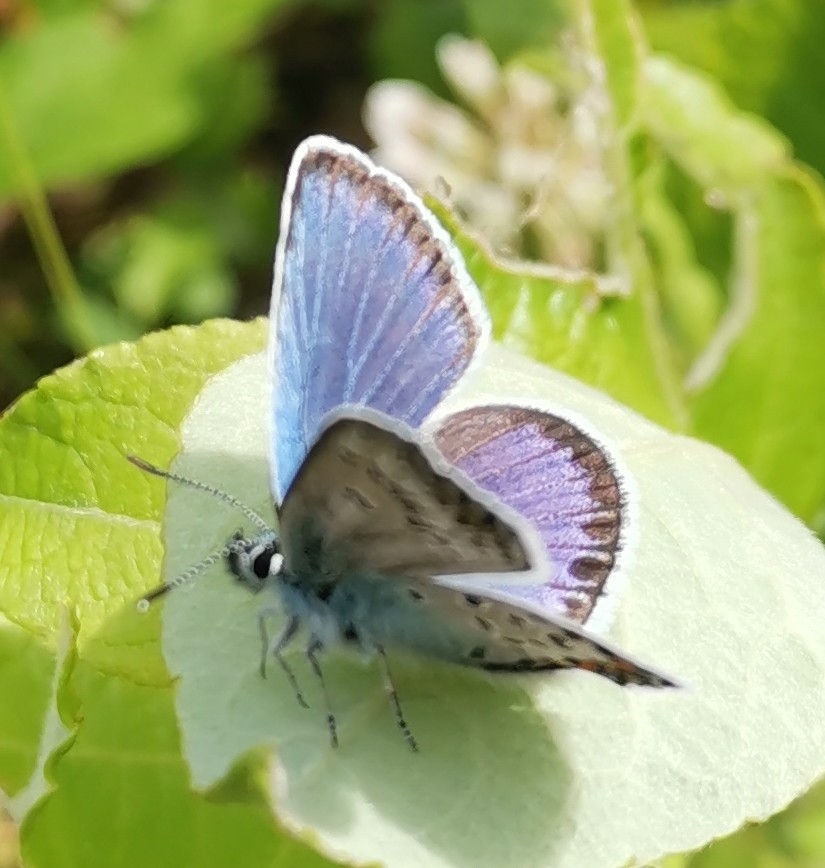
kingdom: Animalia
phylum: Arthropoda
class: Insecta
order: Lepidoptera
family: Lycaenidae
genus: Plebejus
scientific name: Plebejus argus
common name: Silver-studded blue
